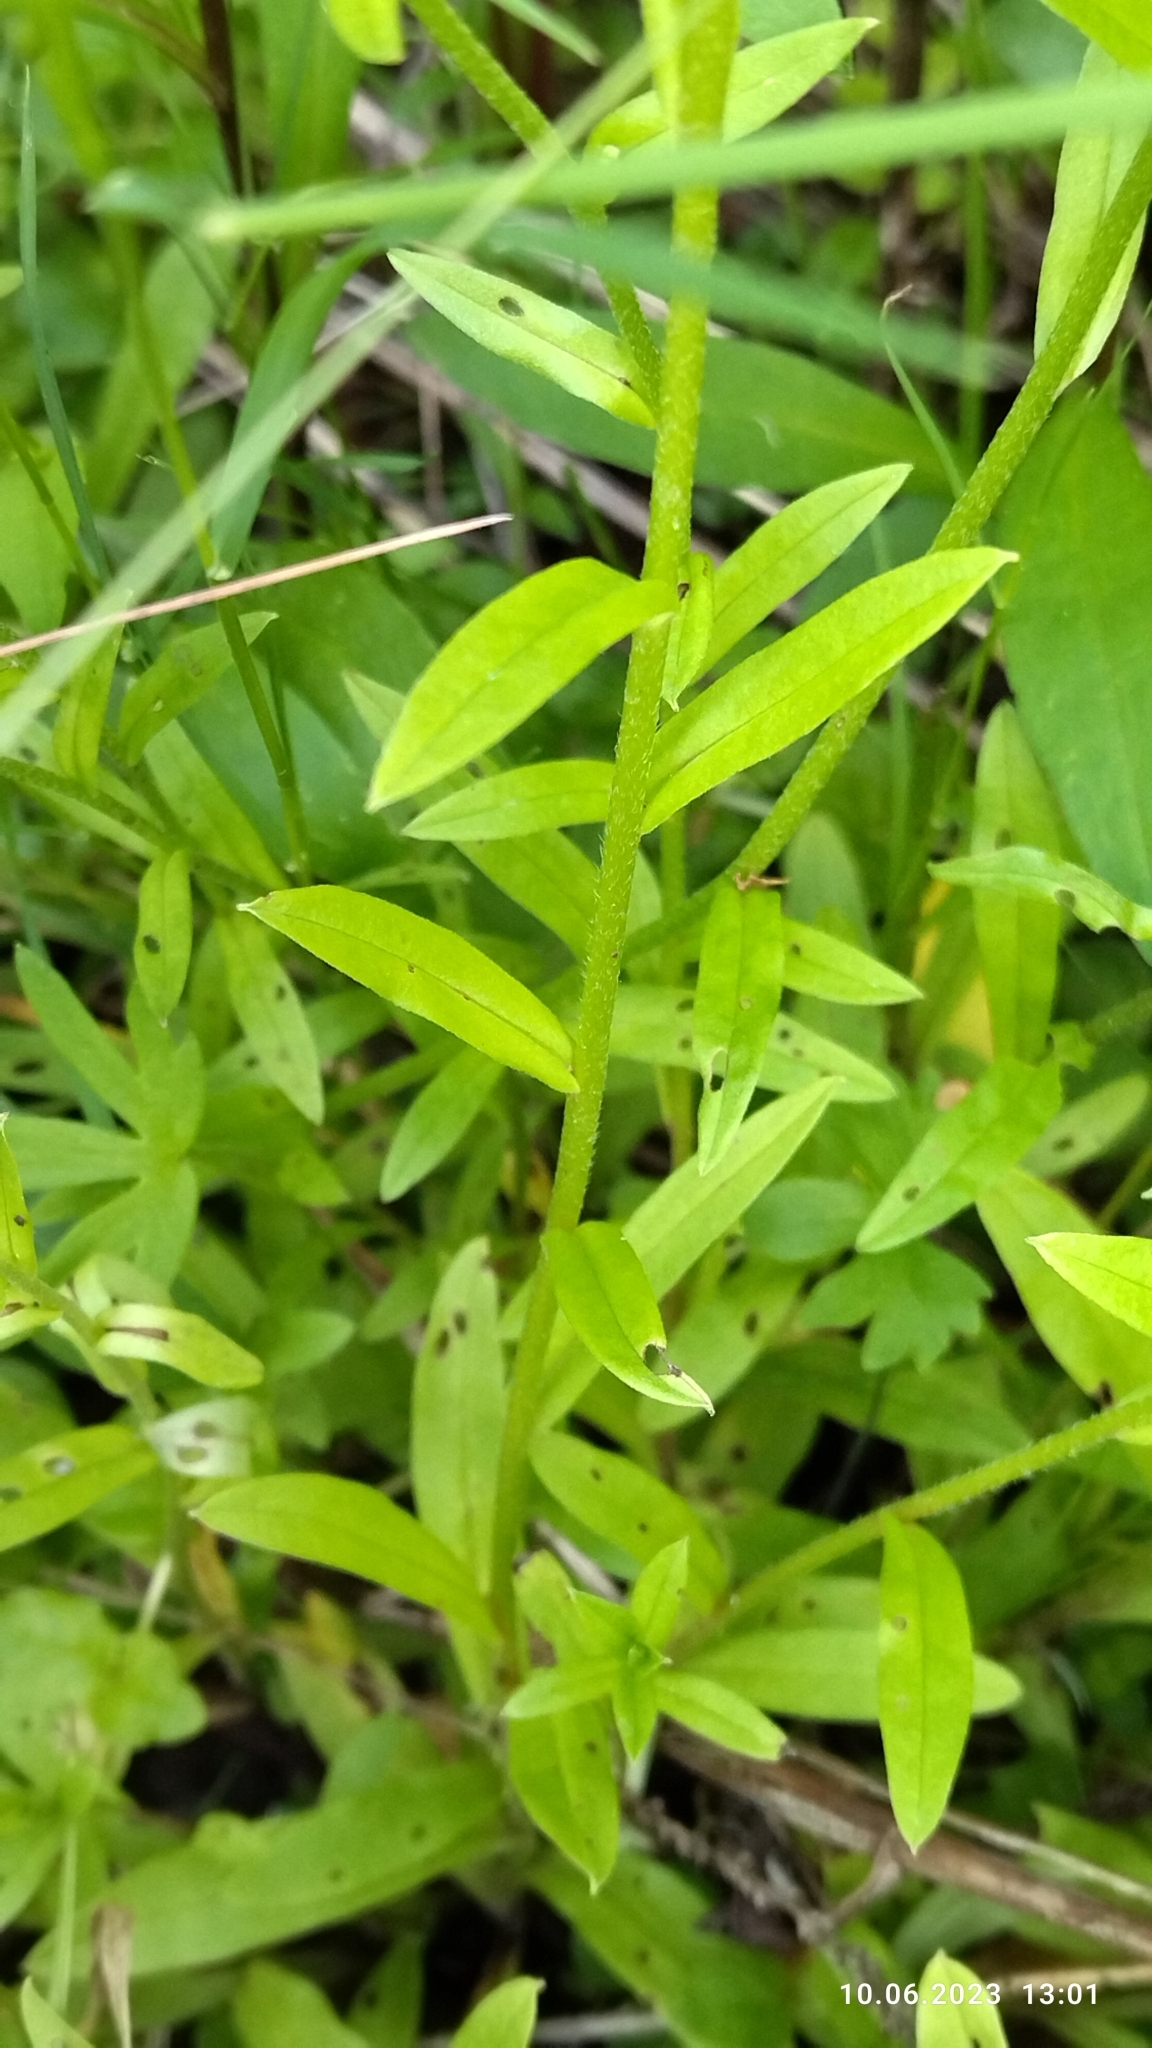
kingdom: Plantae
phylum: Tracheophyta
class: Magnoliopsida
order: Boraginales
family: Boraginaceae
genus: Myosotis
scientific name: Myosotis scorpioides
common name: Water forget-me-not
